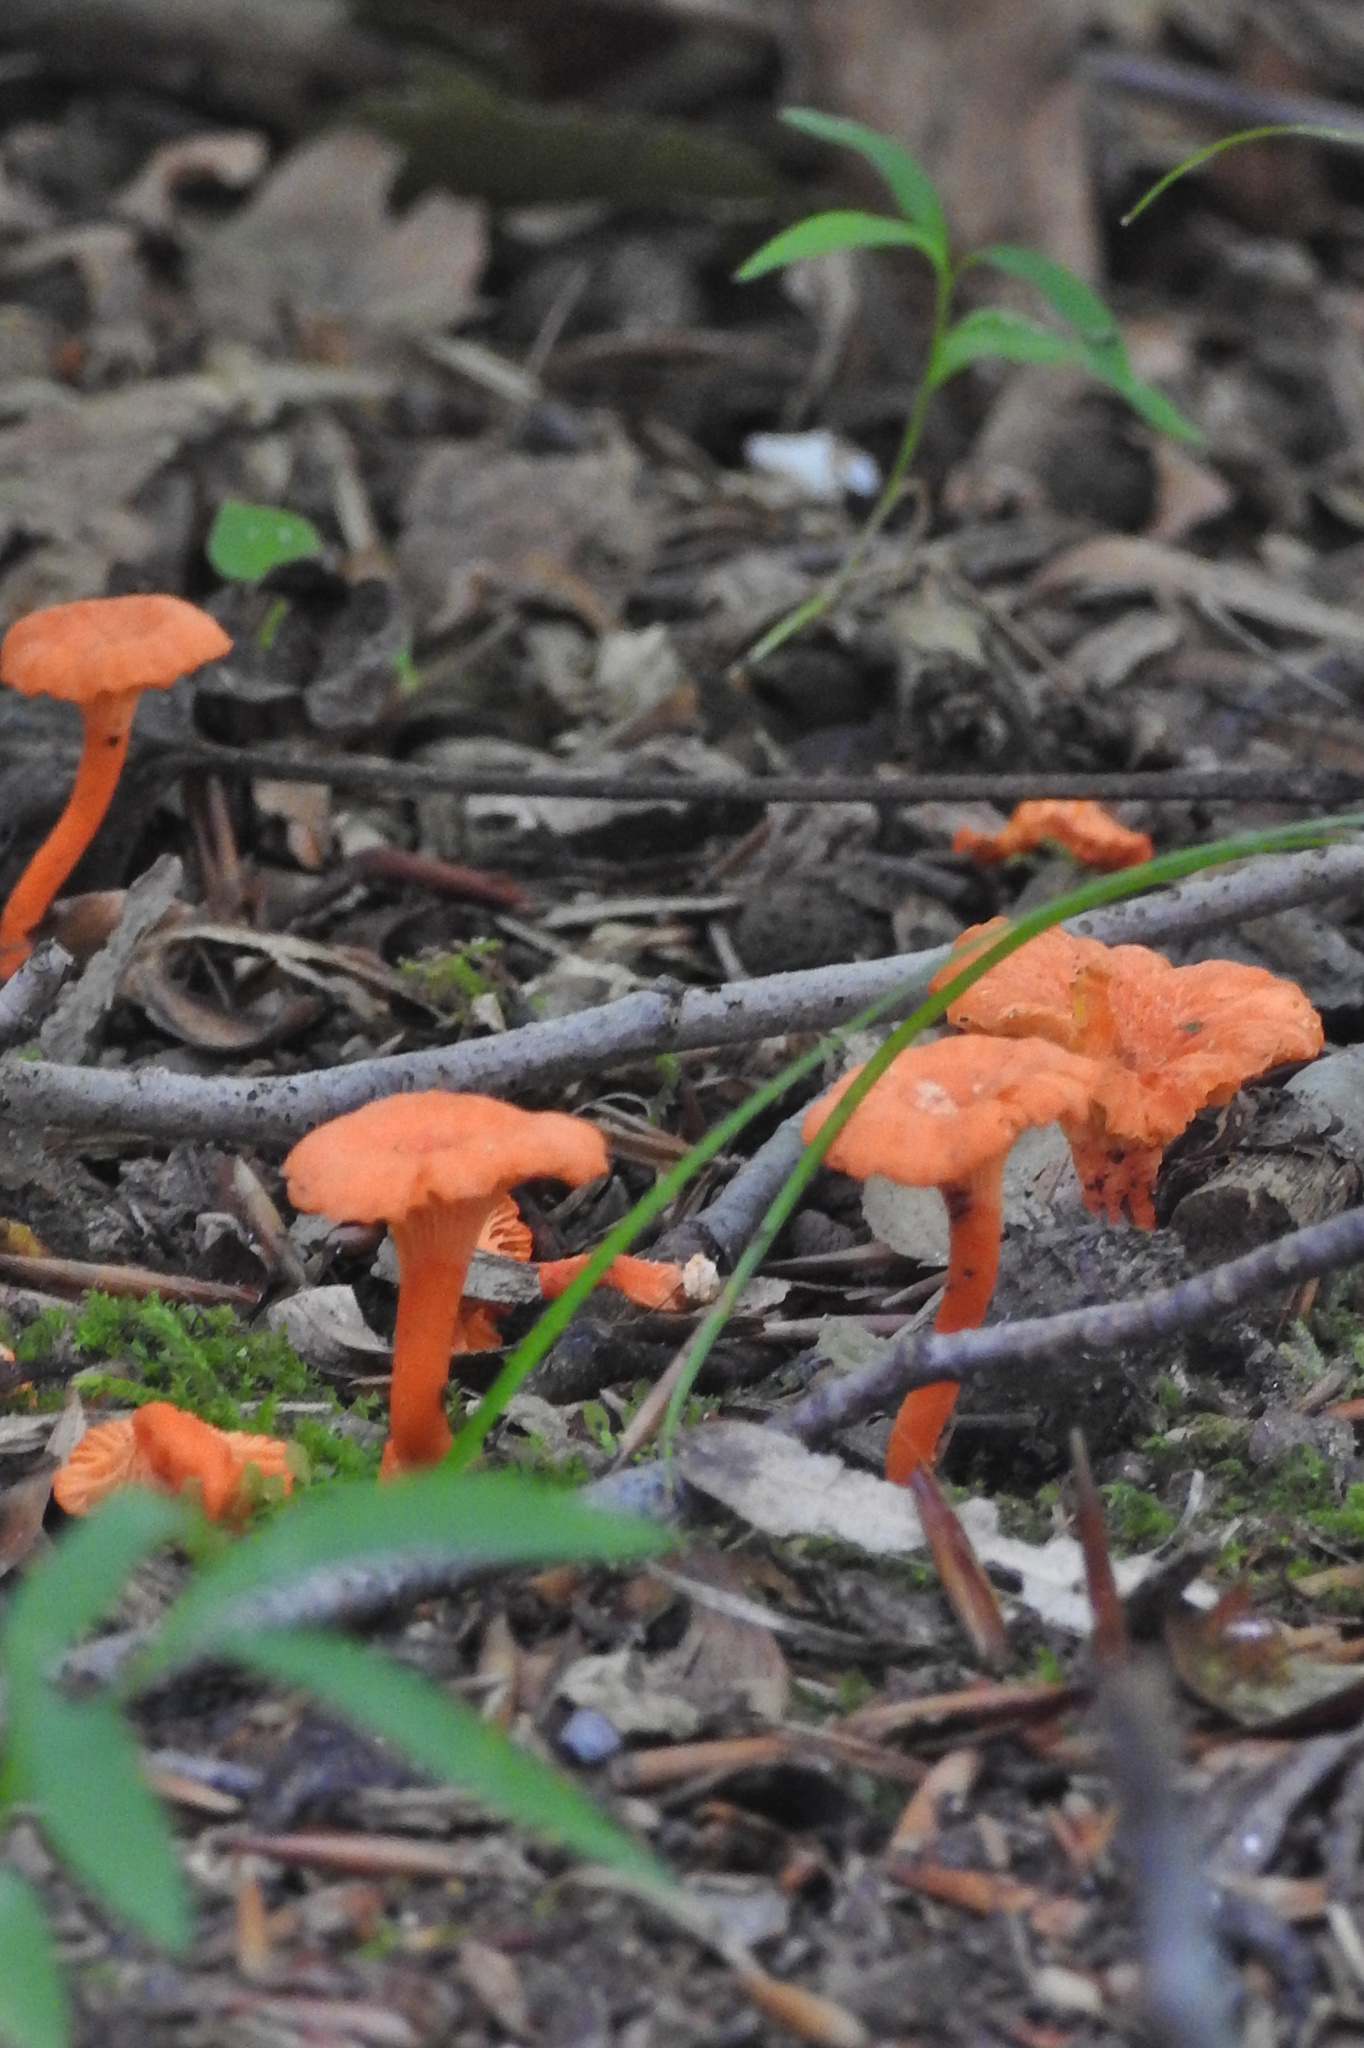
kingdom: Fungi
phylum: Basidiomycota
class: Agaricomycetes
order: Cantharellales
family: Hydnaceae
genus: Cantharellus
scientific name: Cantharellus cinnabarinus
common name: Cinnabar chanterelle
